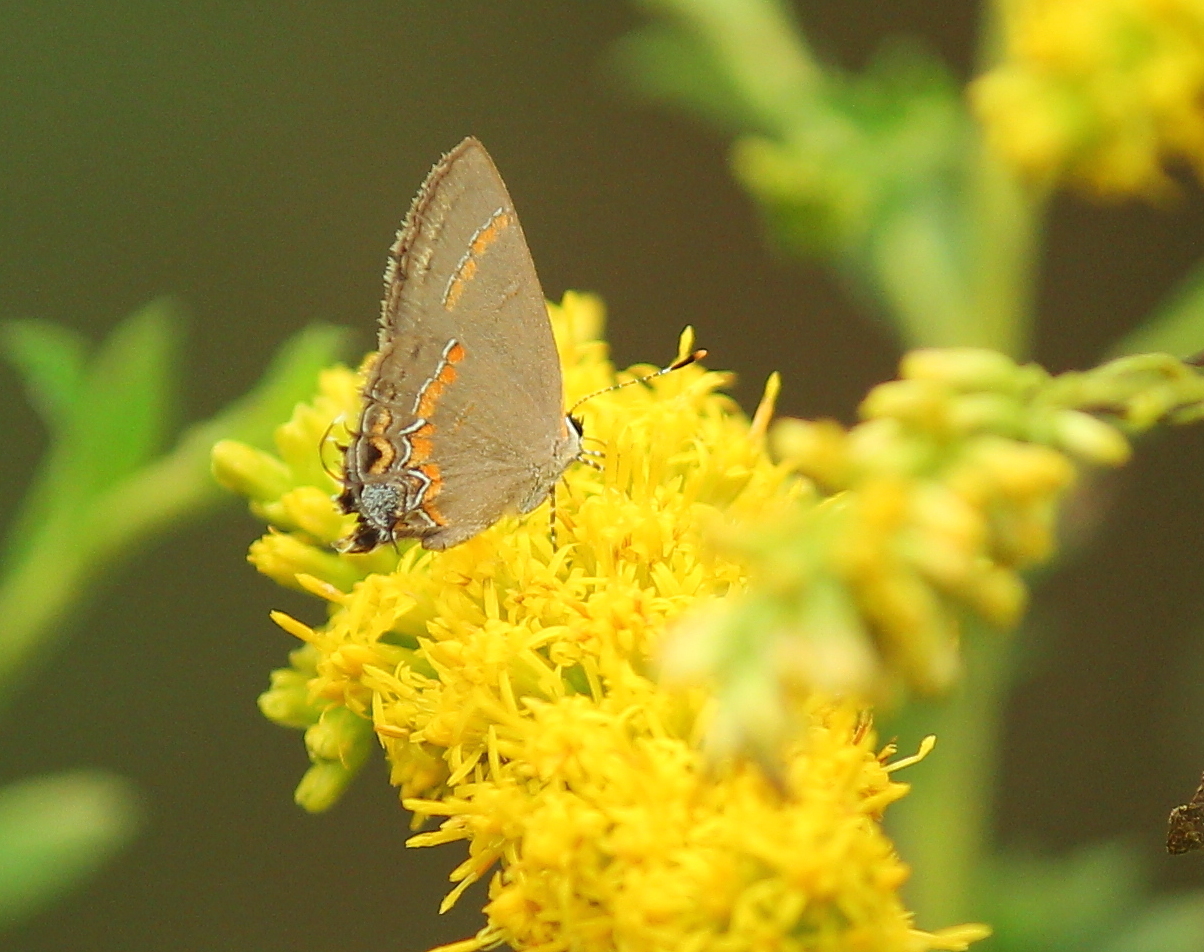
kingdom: Animalia
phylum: Arthropoda
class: Insecta
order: Lepidoptera
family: Lycaenidae
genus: Calycopis
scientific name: Calycopis cecrops
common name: Red-banded hairstreak
